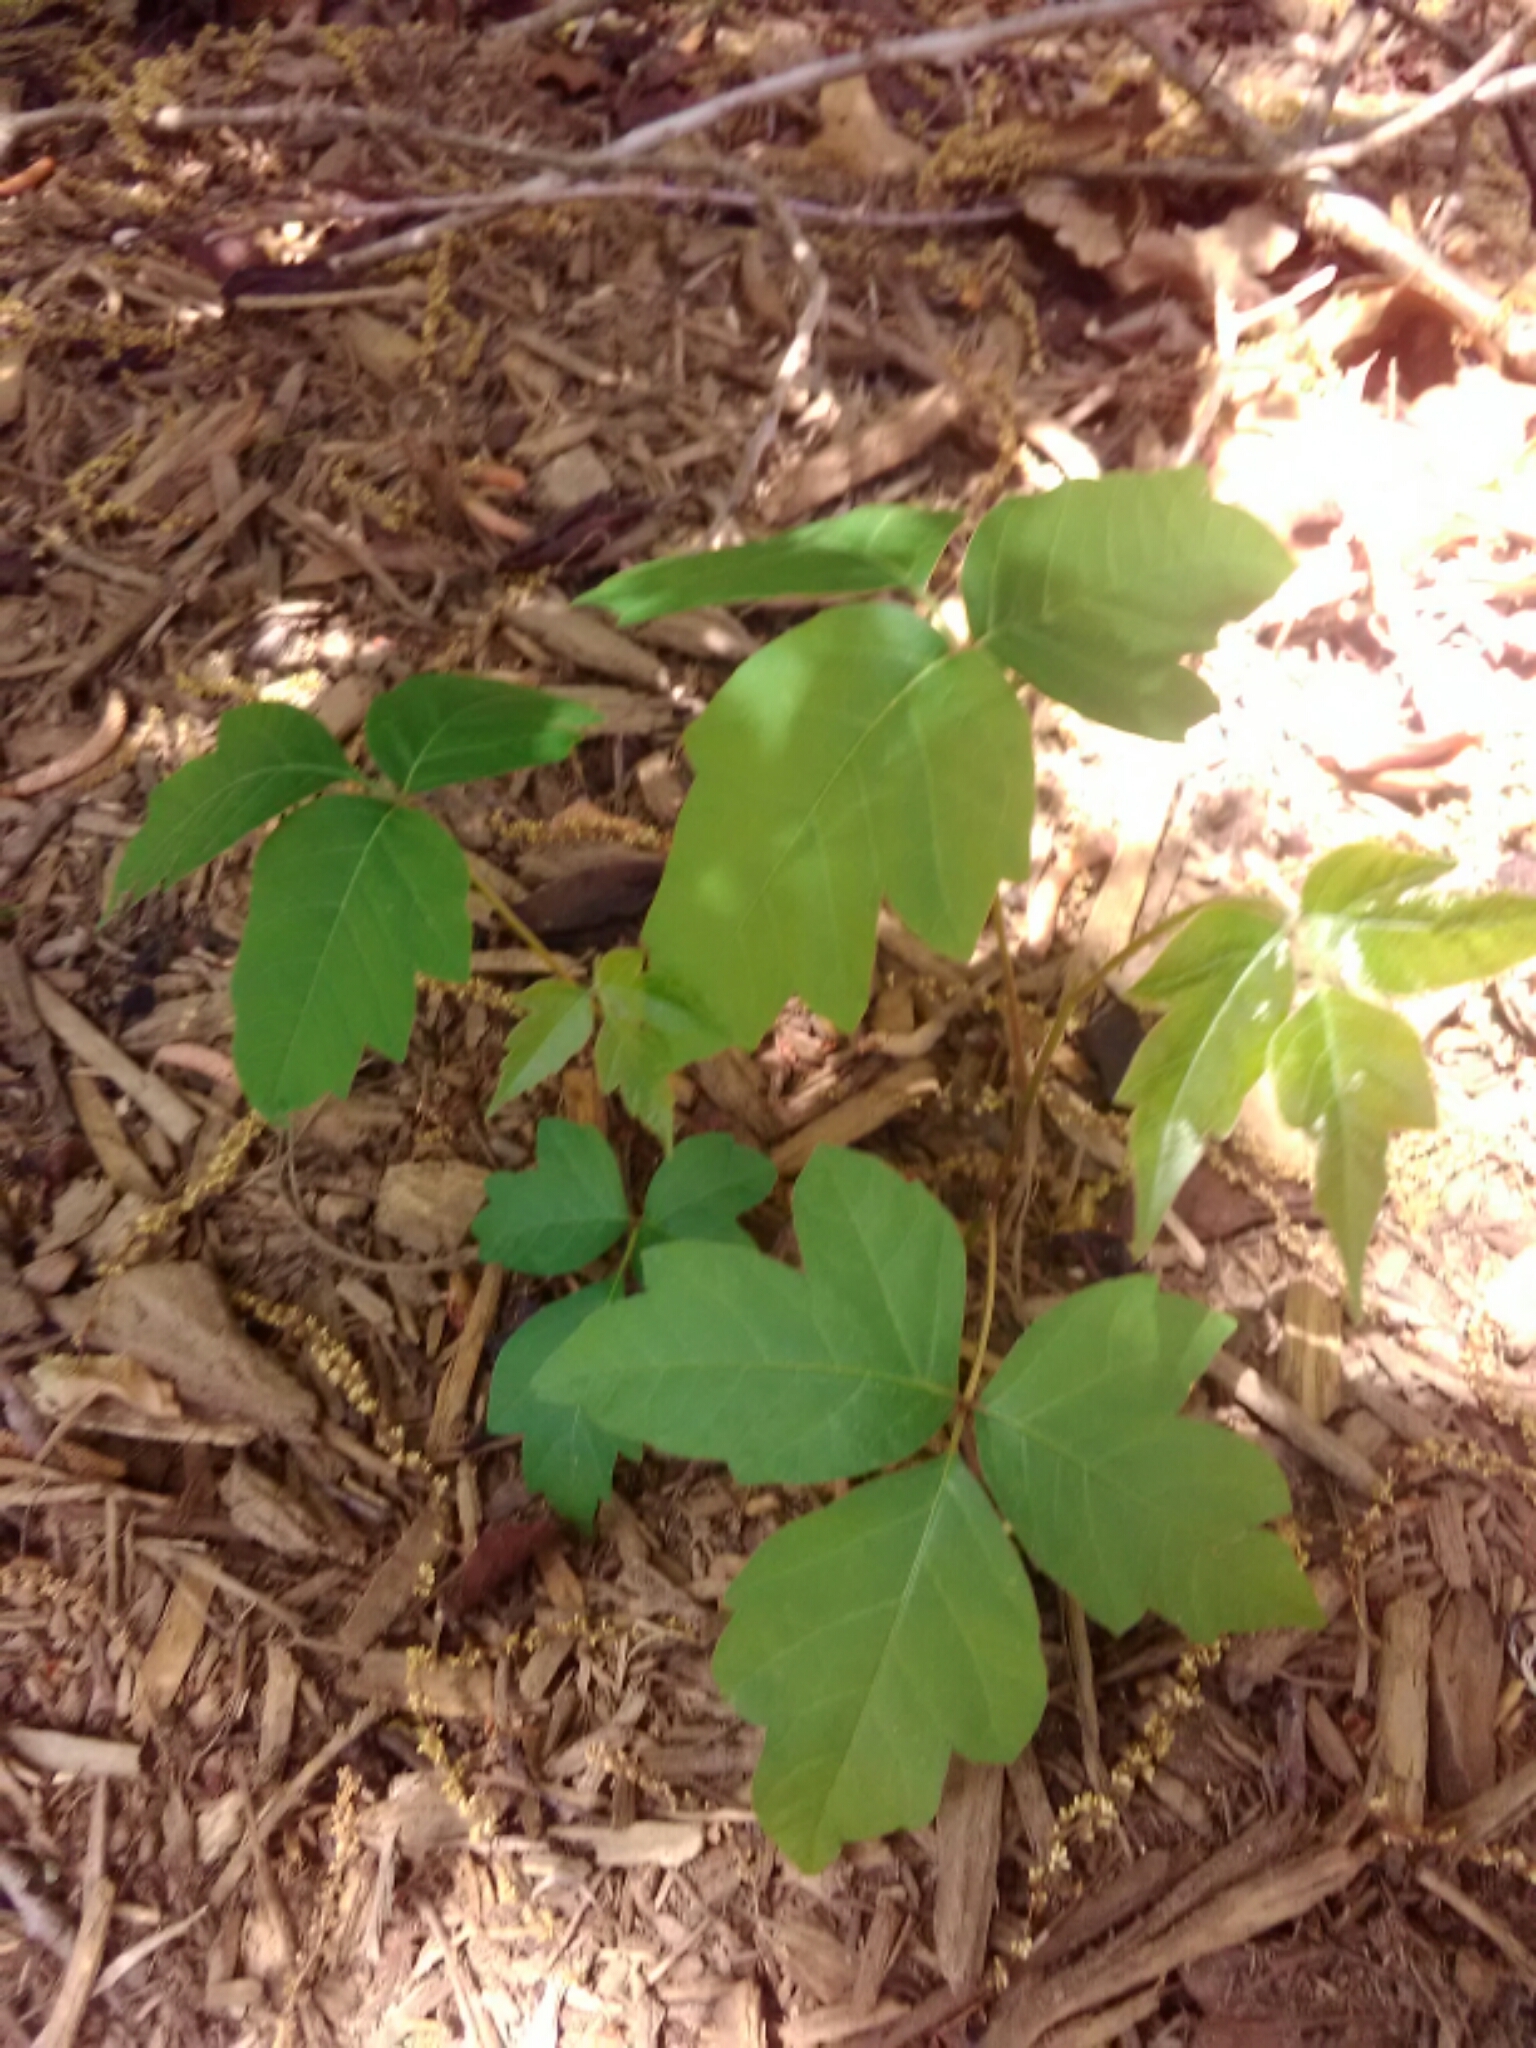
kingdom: Plantae
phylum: Tracheophyta
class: Magnoliopsida
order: Sapindales
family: Anacardiaceae
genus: Toxicodendron
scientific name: Toxicodendron radicans
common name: Poison ivy
